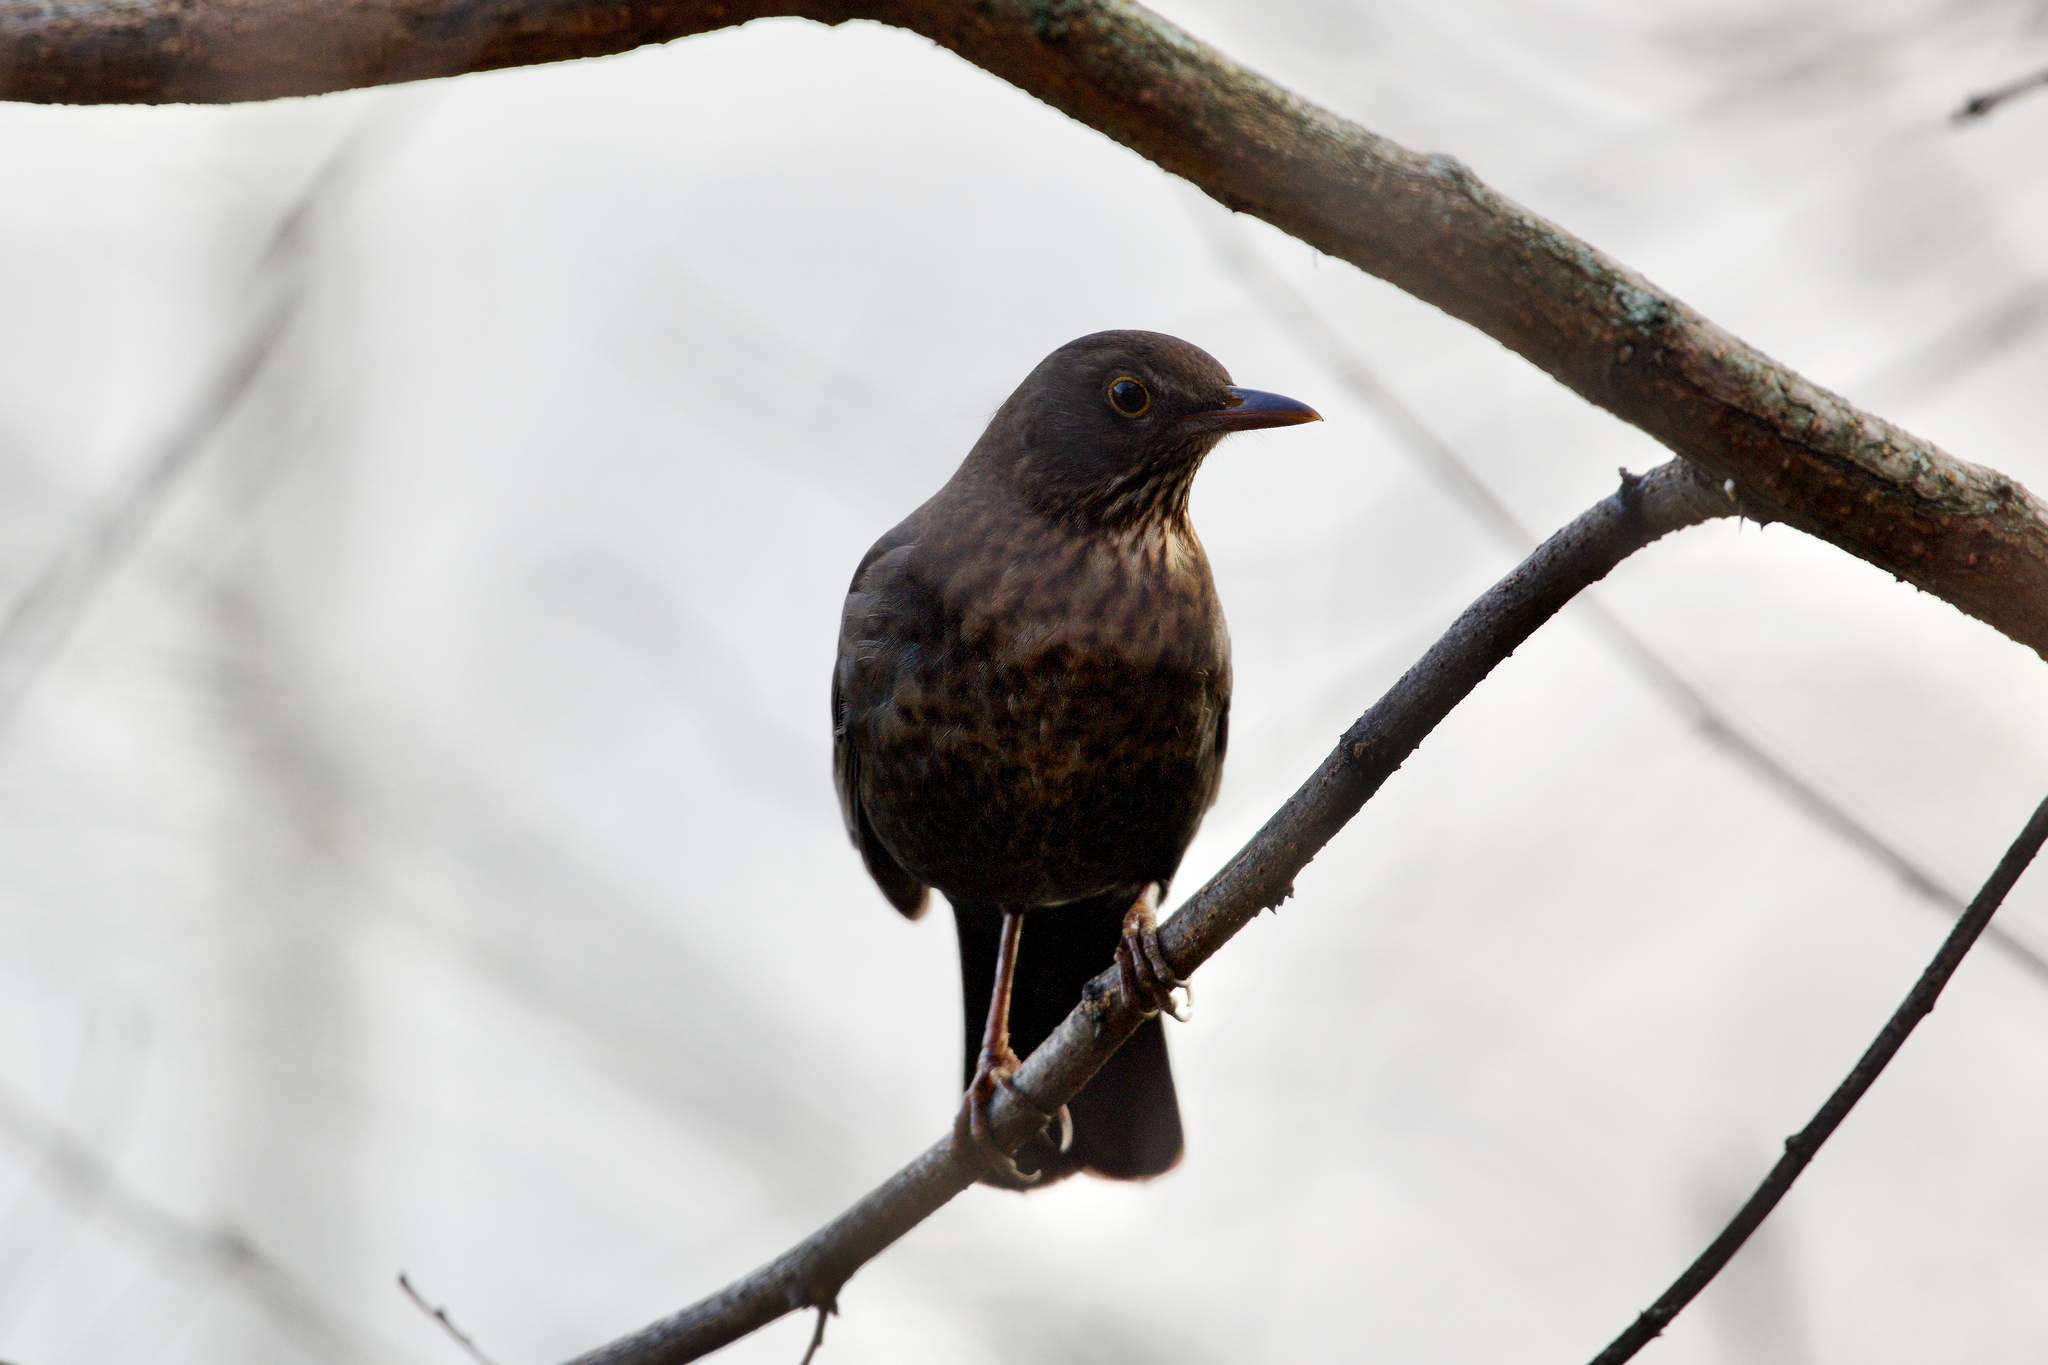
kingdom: Animalia
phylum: Chordata
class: Aves
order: Passeriformes
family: Turdidae
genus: Turdus
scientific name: Turdus merula
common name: Common blackbird
